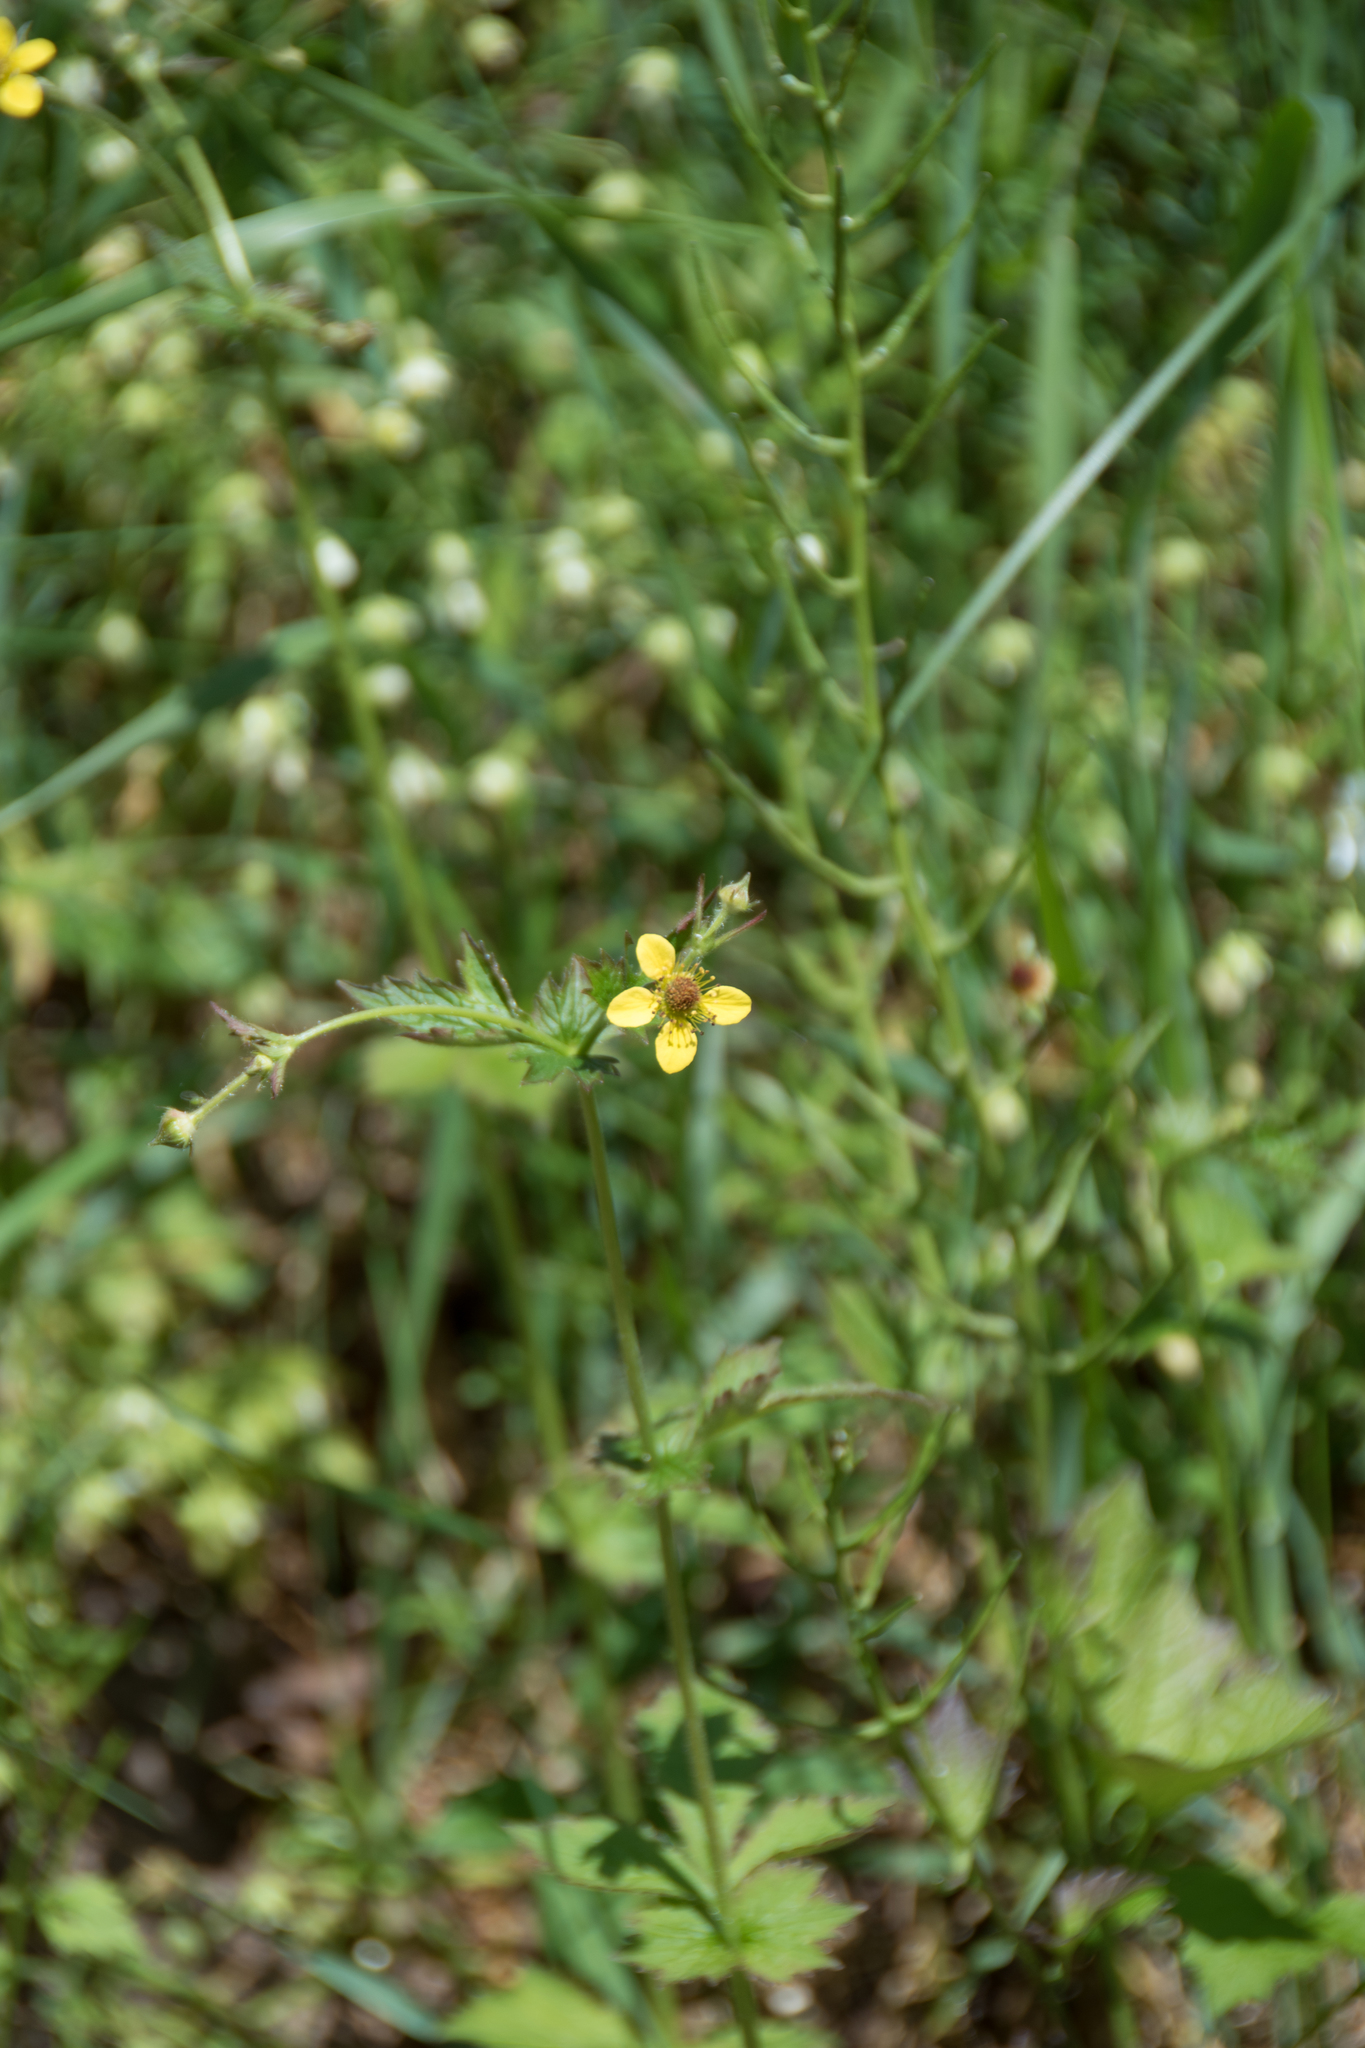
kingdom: Plantae
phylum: Tracheophyta
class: Magnoliopsida
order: Rosales
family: Rosaceae
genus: Geum
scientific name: Geum urbanum
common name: Wood avens
